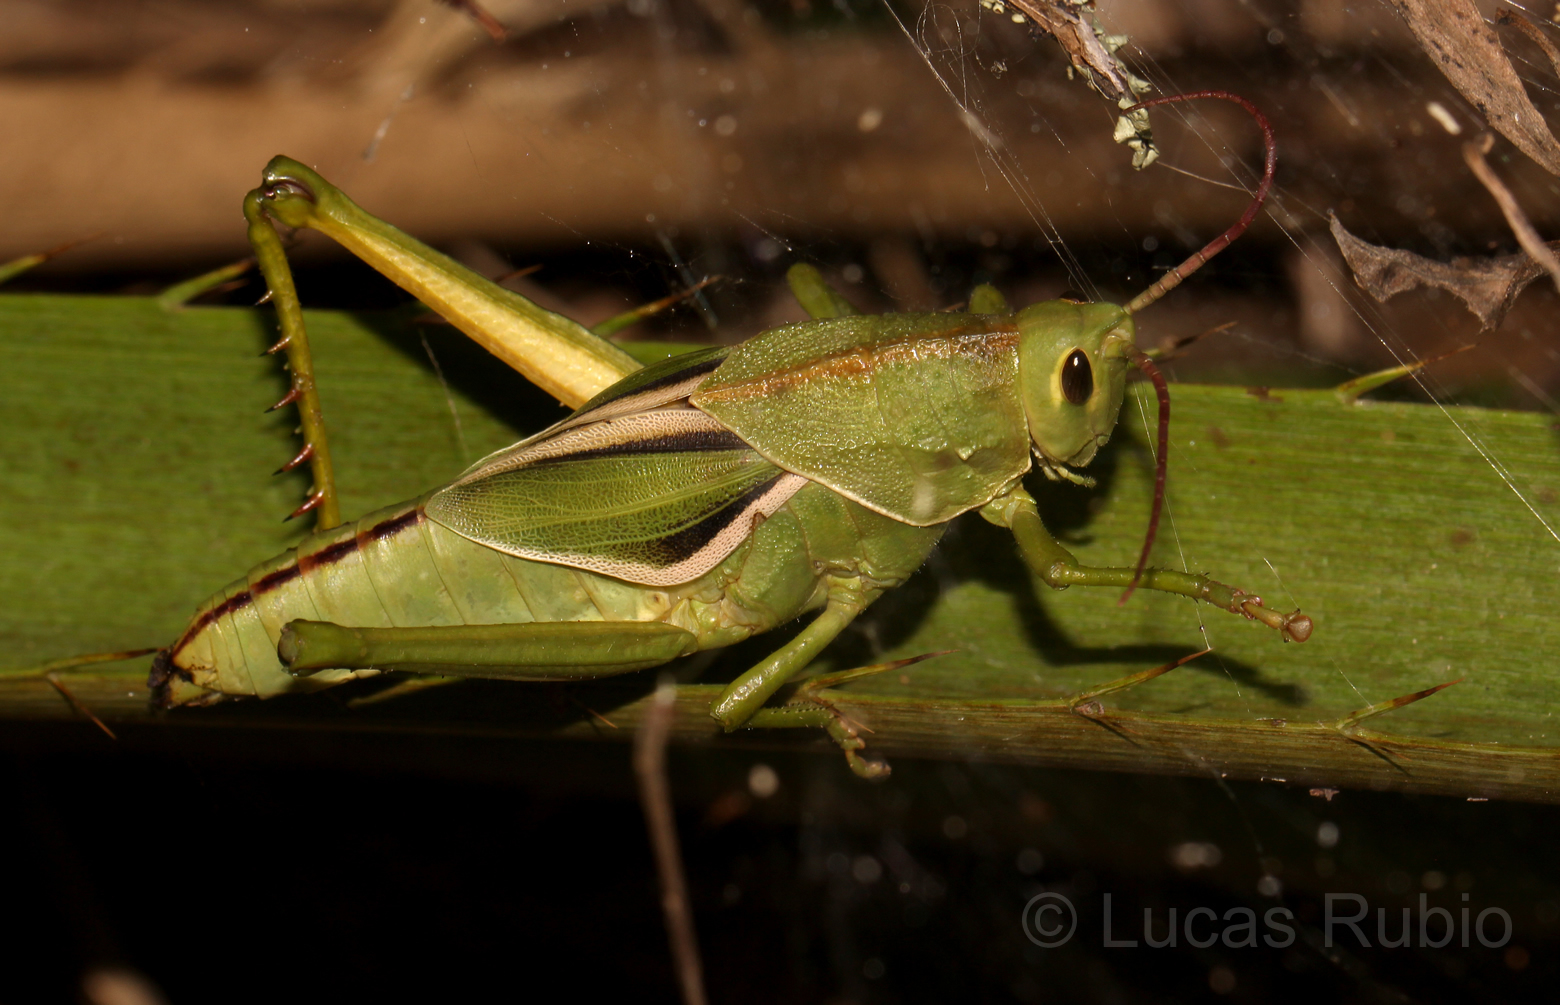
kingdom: Animalia
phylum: Arthropoda
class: Insecta
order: Orthoptera
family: Romaleidae
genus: Staleochlora
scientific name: Staleochlora viridicata
